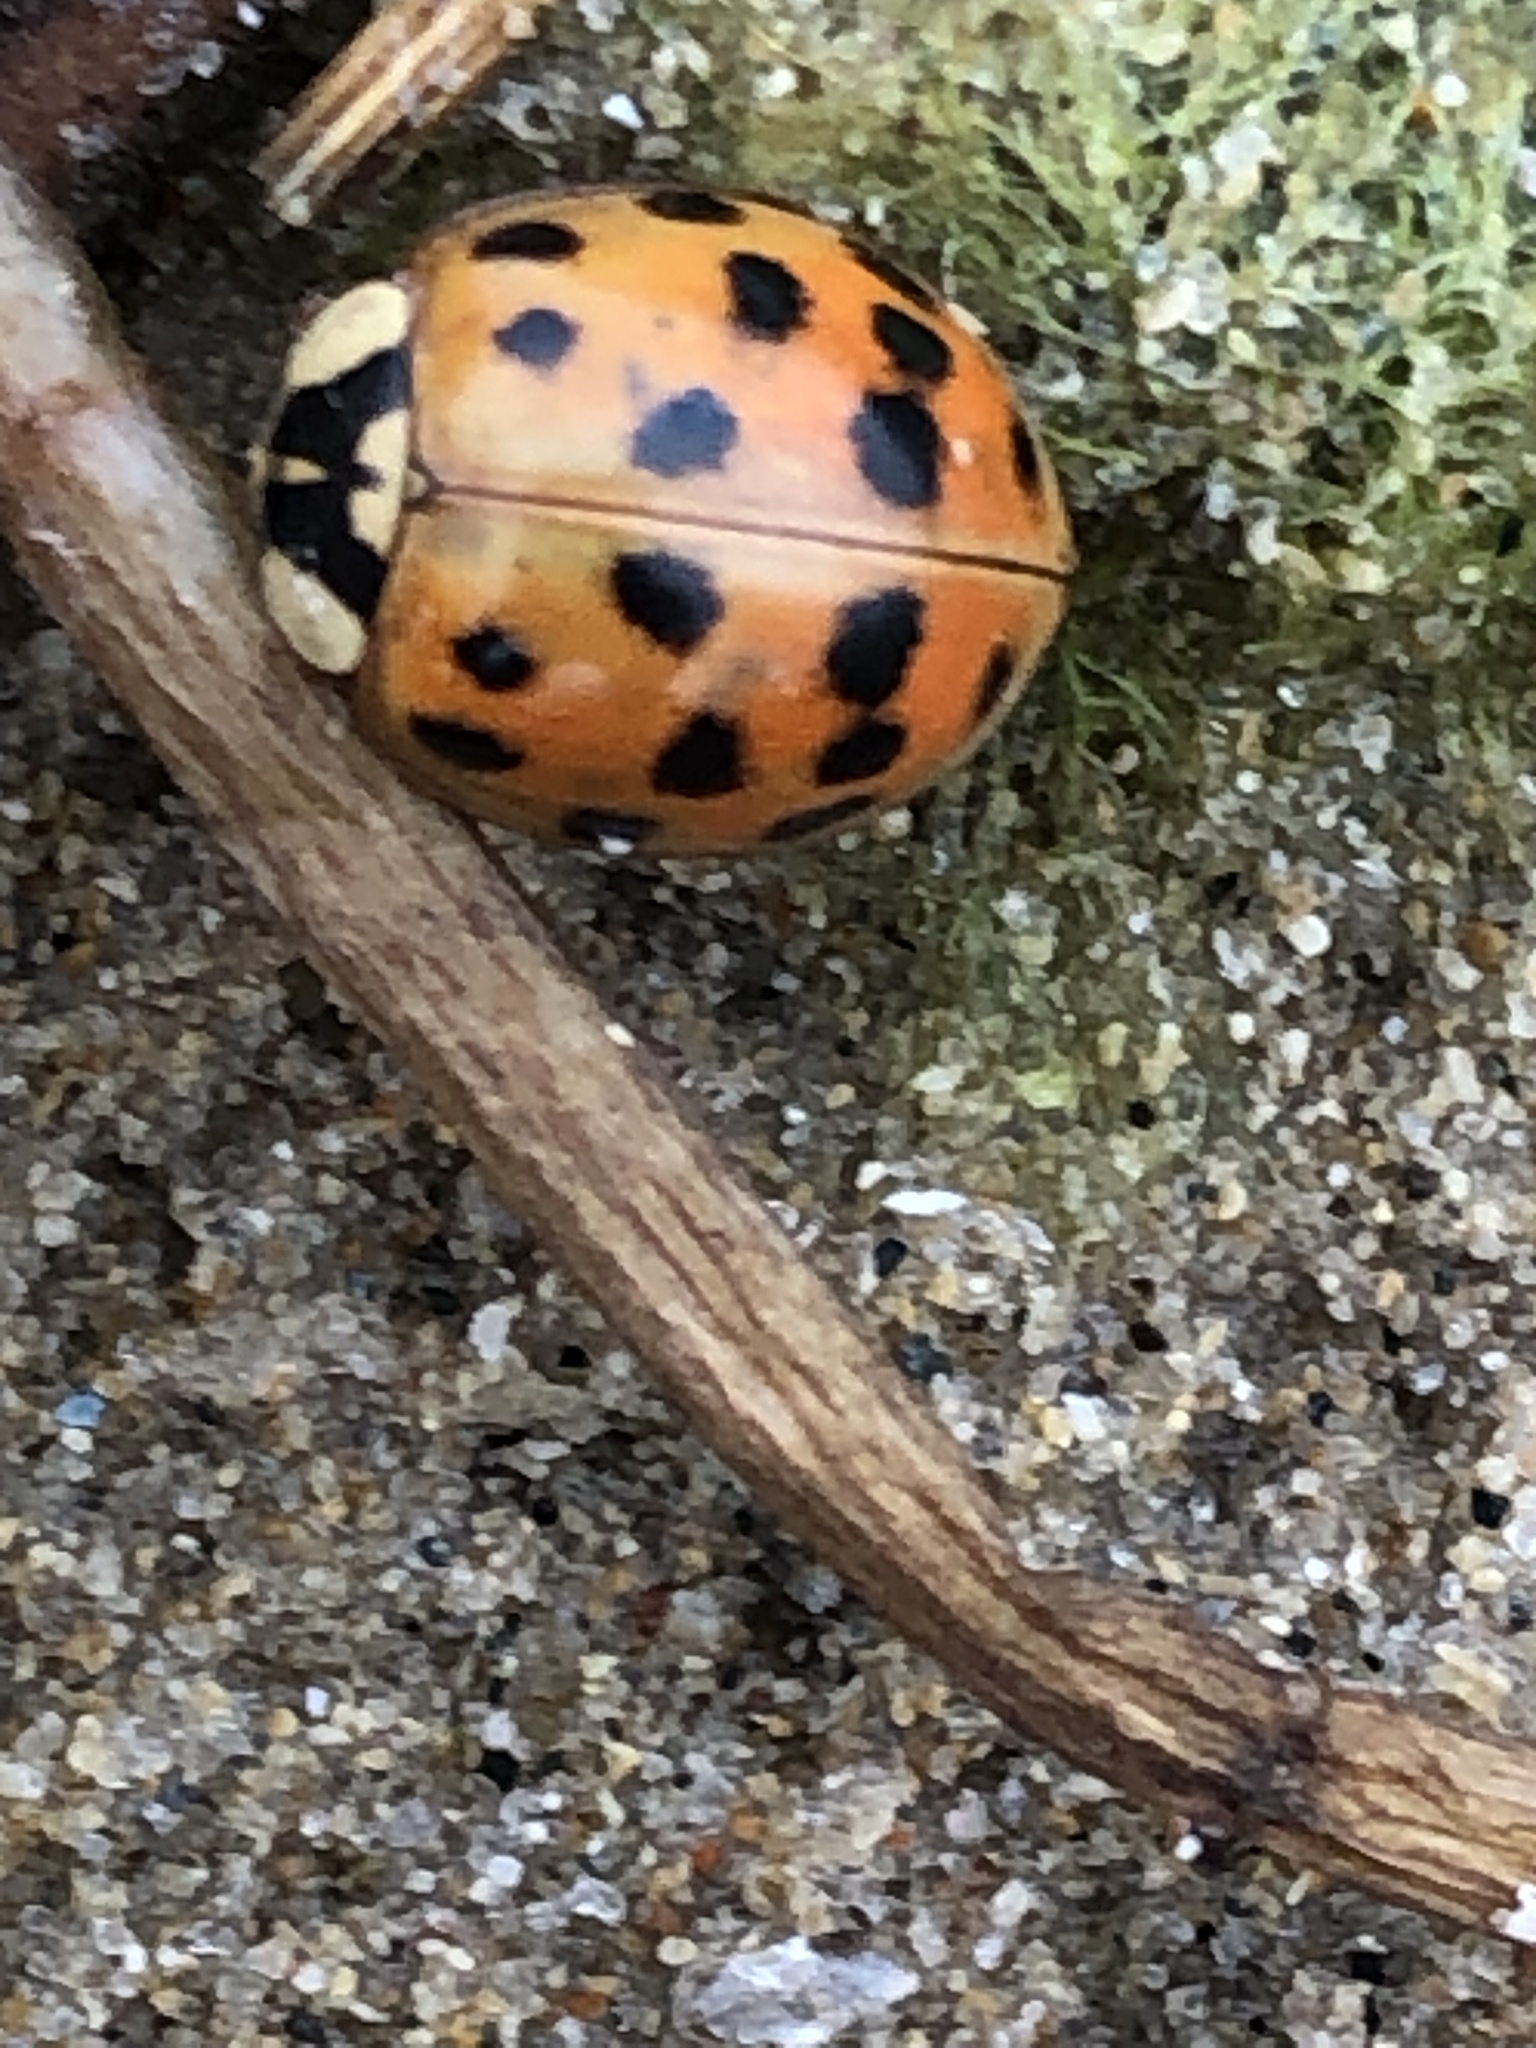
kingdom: Animalia
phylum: Arthropoda
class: Insecta
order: Coleoptera
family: Coccinellidae
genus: Harmonia
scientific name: Harmonia axyridis
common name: Harlequin ladybird
